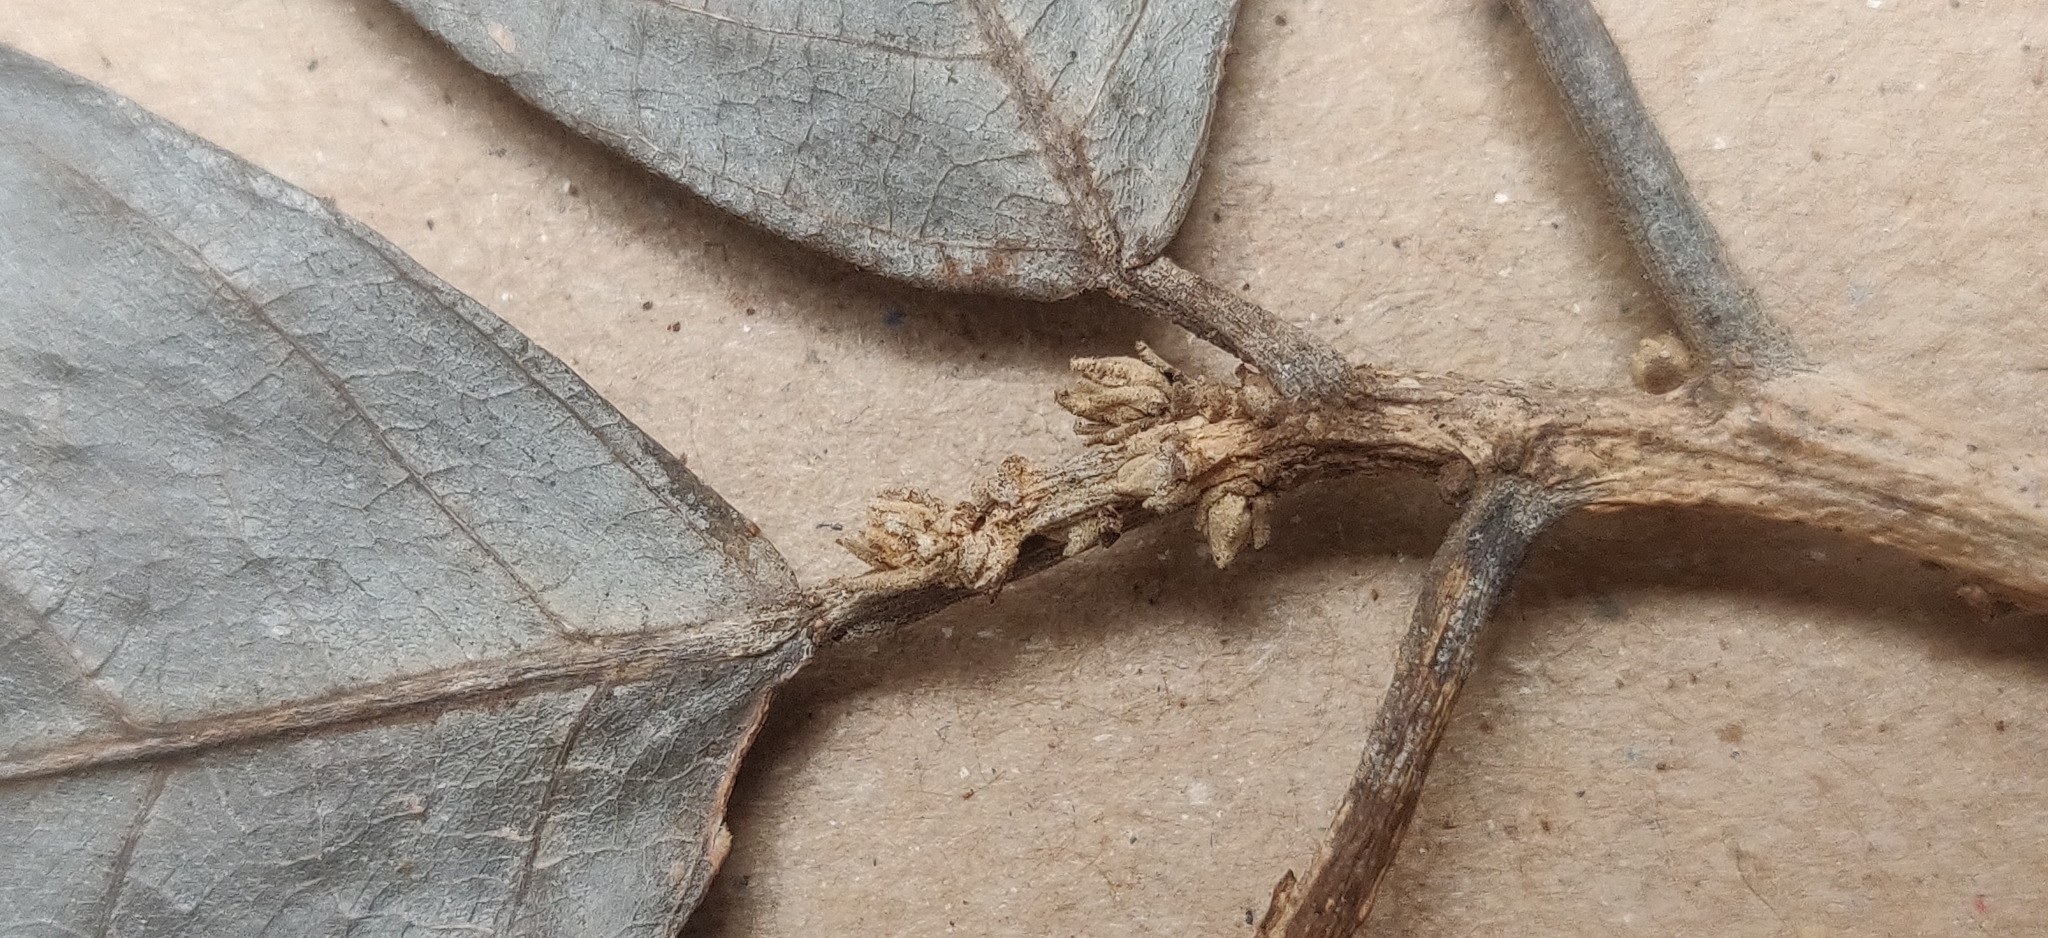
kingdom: Plantae
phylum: Tracheophyta
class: Magnoliopsida
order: Malpighiales
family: Euphorbiaceae
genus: Epiprinus
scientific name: Epiprinus mallotiformis
